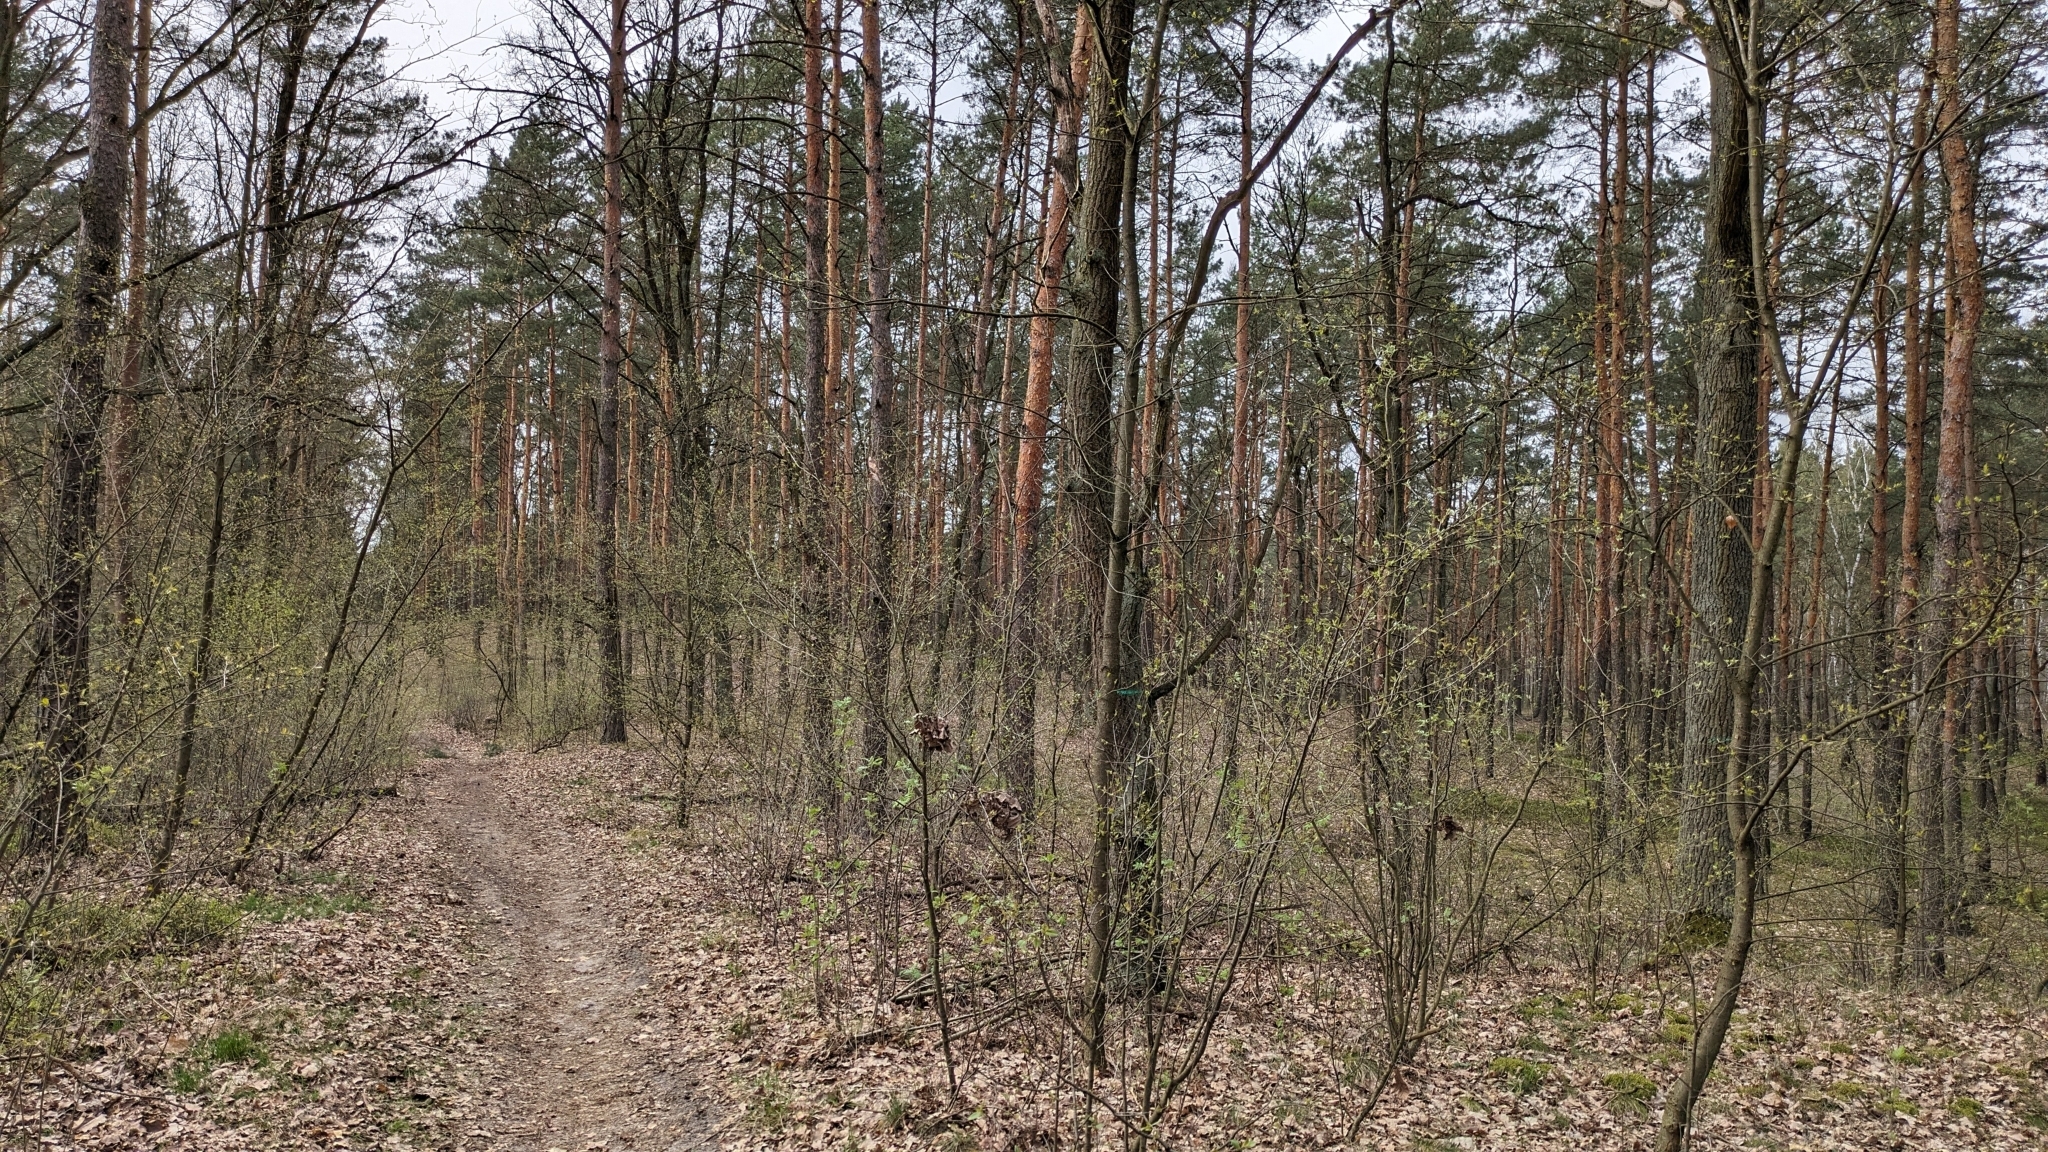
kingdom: Animalia
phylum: Chordata
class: Aves
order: Passeriformes
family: Fringillidae
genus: Fringilla
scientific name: Fringilla coelebs
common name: Common chaffinch
